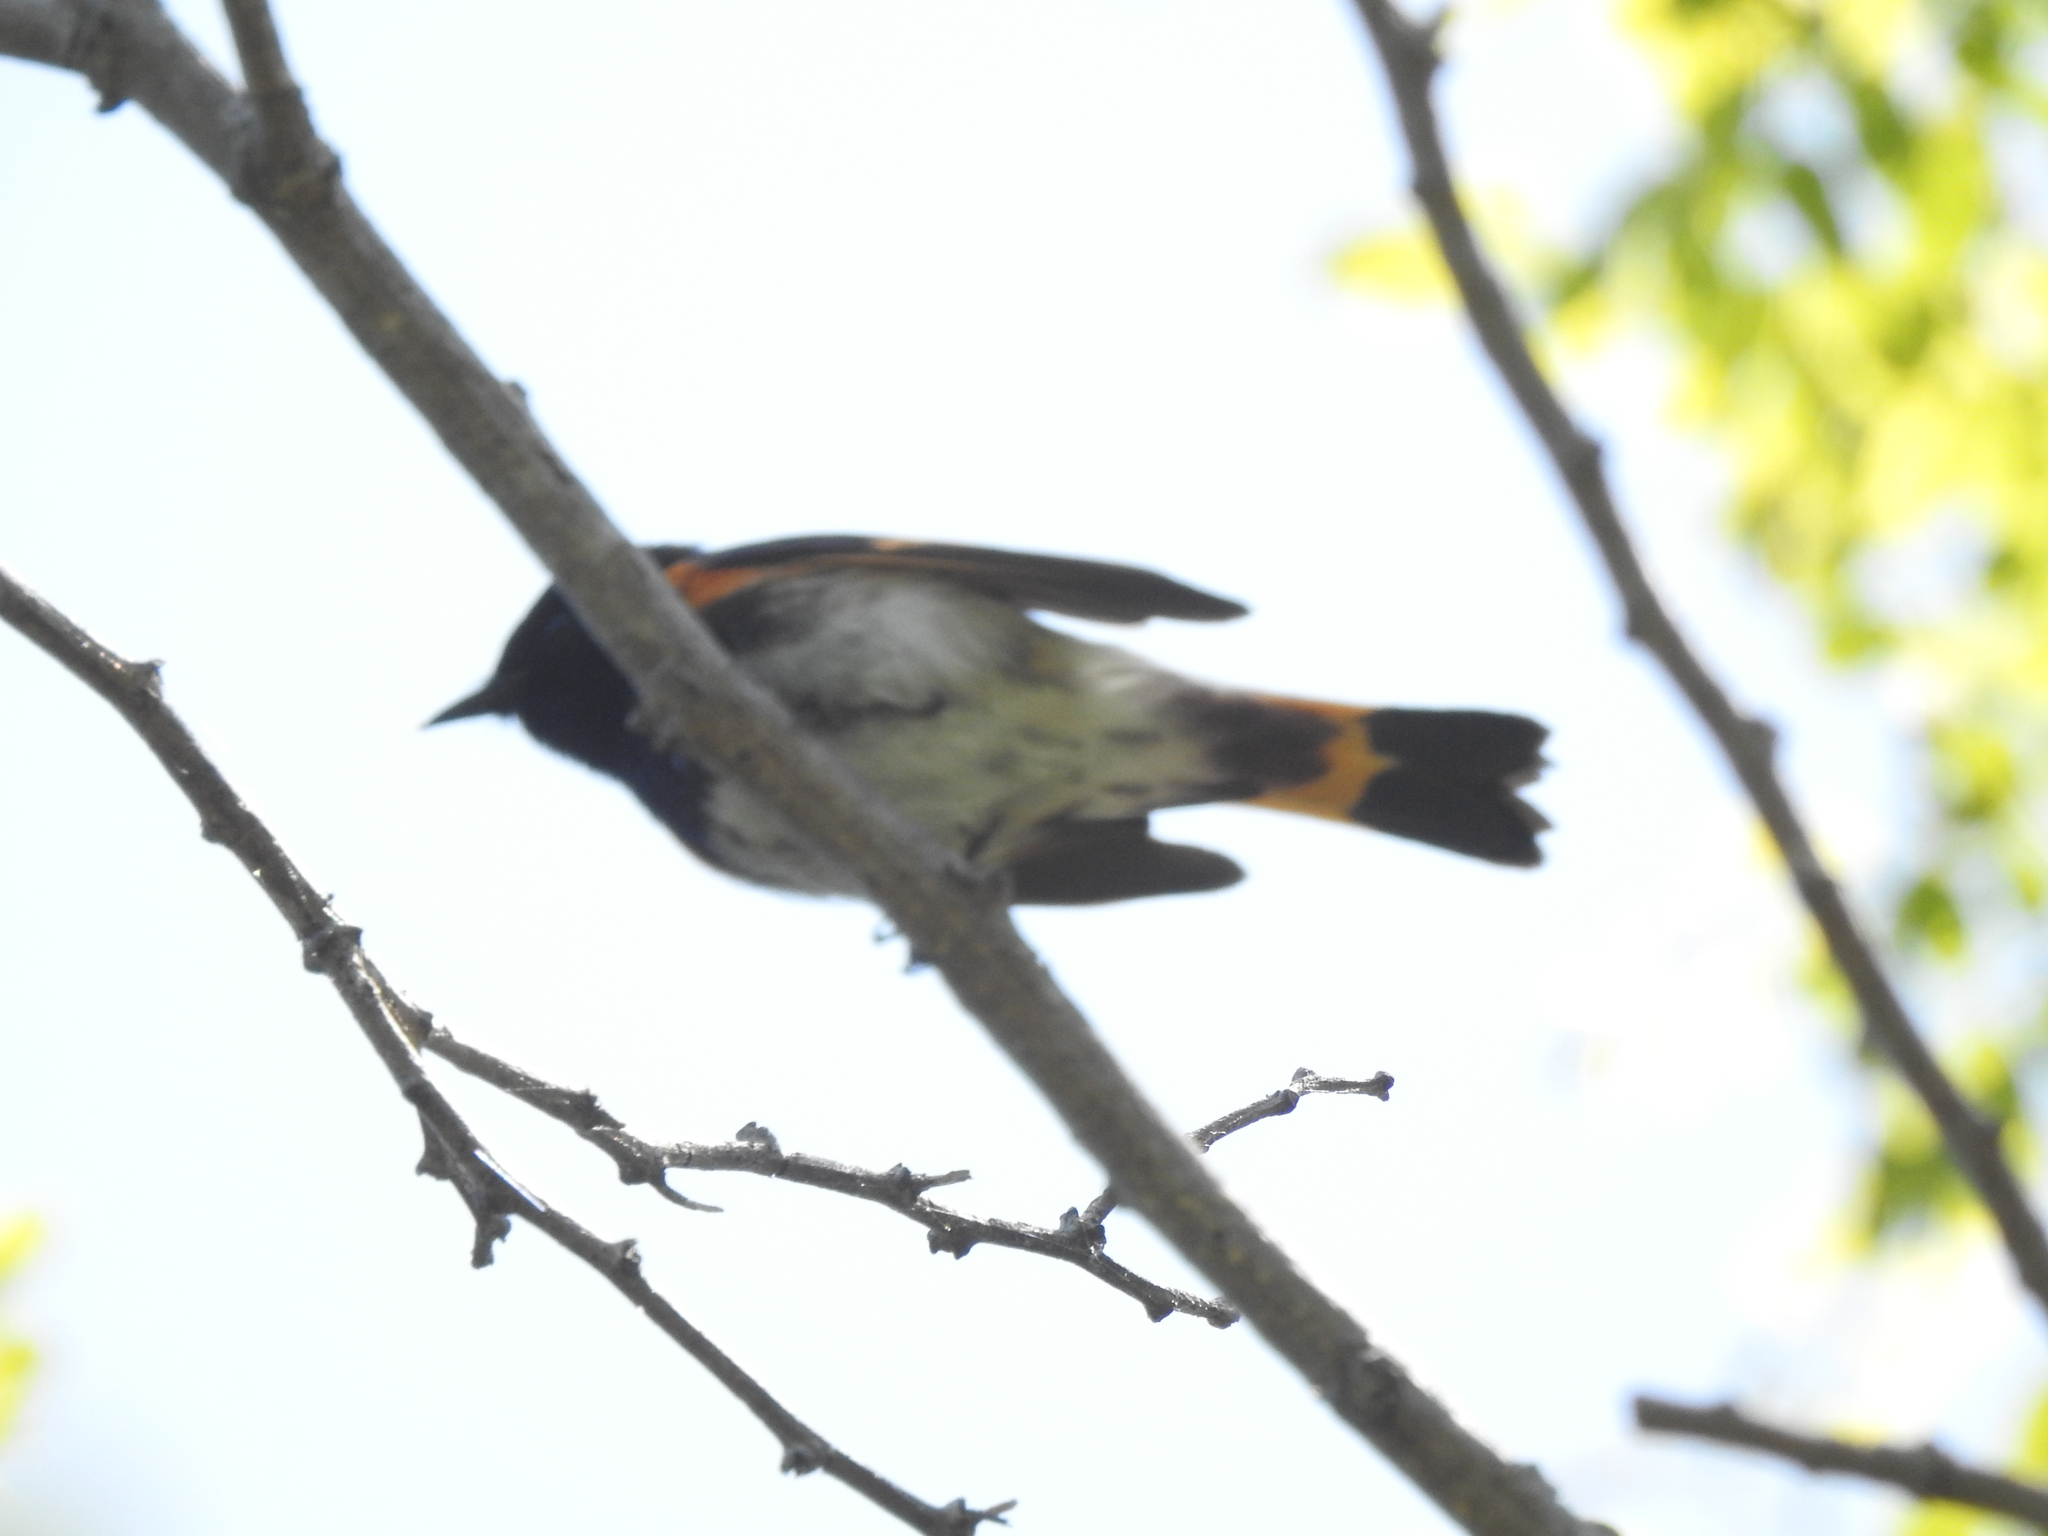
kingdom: Animalia
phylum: Chordata
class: Aves
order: Passeriformes
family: Parulidae
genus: Setophaga
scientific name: Setophaga ruticilla
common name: American redstart
